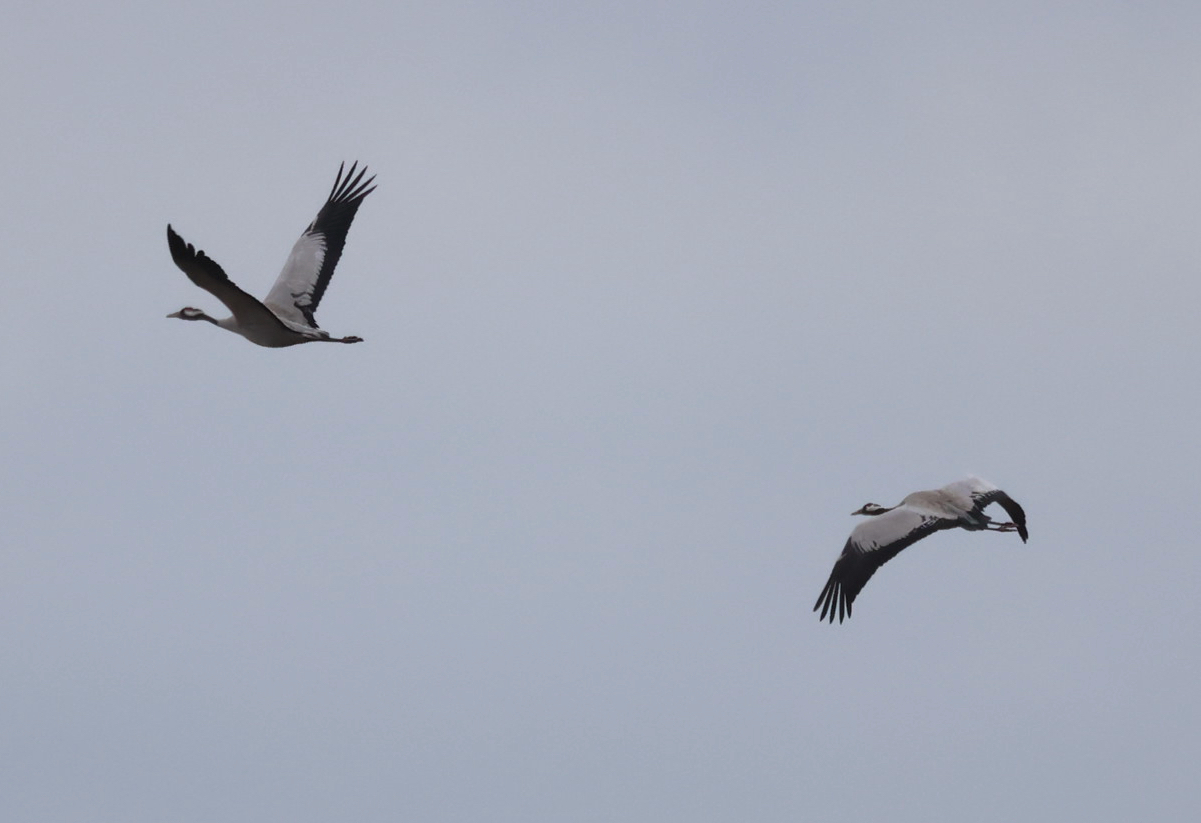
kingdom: Animalia
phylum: Chordata
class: Aves
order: Gruiformes
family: Gruidae
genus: Grus
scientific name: Grus grus
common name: Common crane
